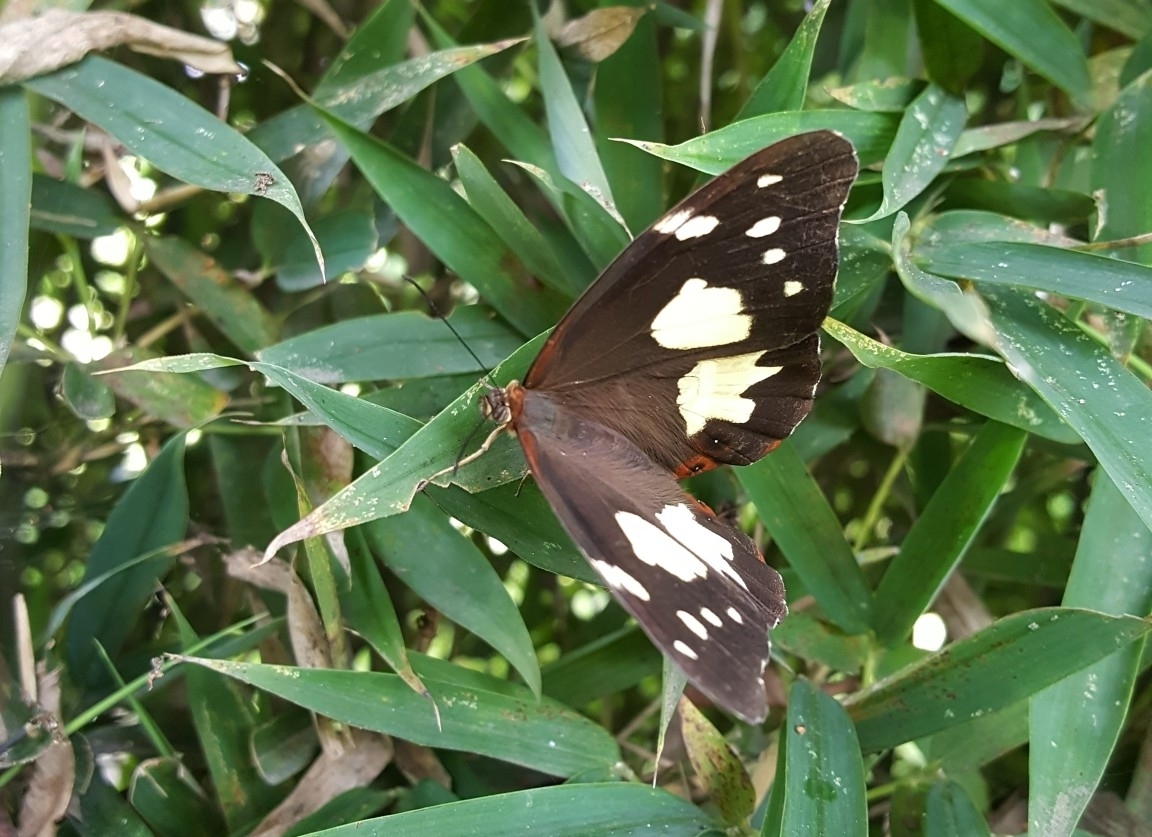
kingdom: Animalia
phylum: Arthropoda
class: Insecta
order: Lepidoptera
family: Nymphalidae
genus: Oxeoschistus
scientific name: Oxeoschistus tauropolis
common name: Starred oxeo
